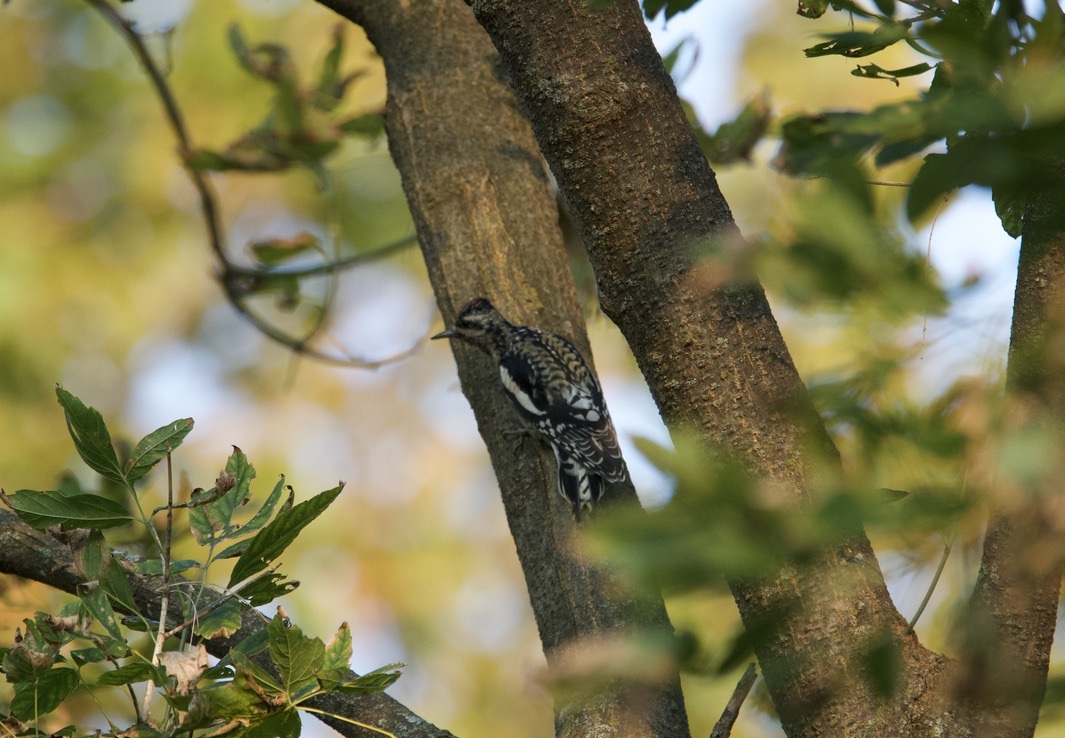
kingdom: Animalia
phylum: Chordata
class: Aves
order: Piciformes
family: Picidae
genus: Sphyrapicus
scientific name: Sphyrapicus varius
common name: Yellow-bellied sapsucker
